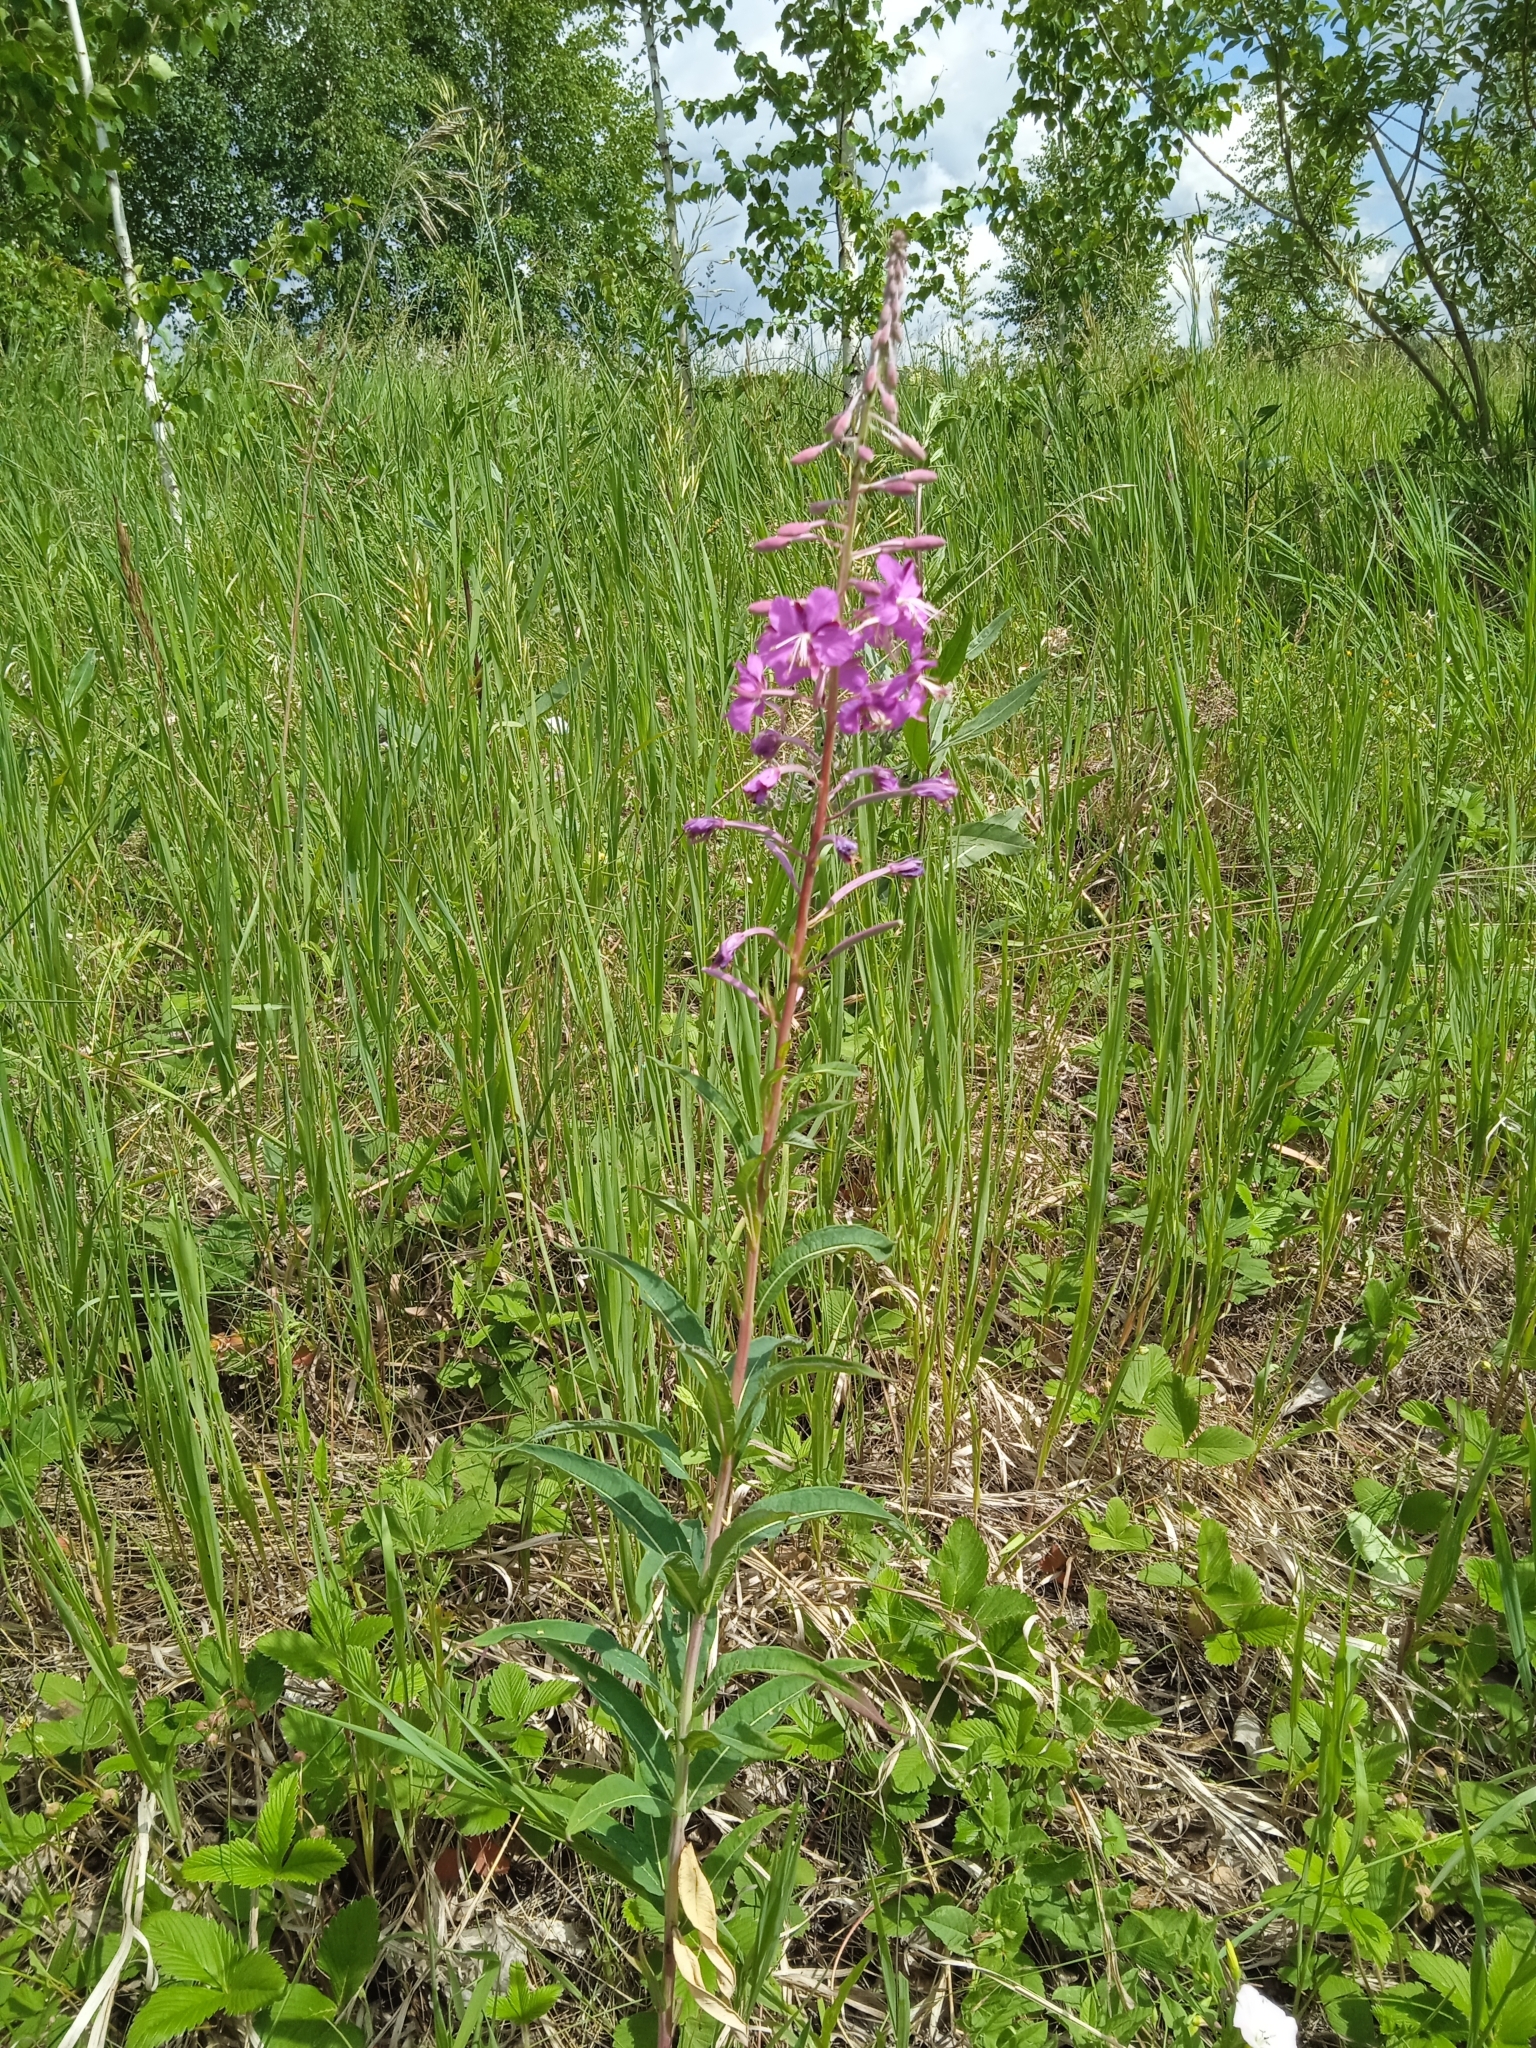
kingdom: Plantae
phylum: Tracheophyta
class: Magnoliopsida
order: Myrtales
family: Onagraceae
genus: Chamaenerion
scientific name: Chamaenerion angustifolium
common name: Fireweed
